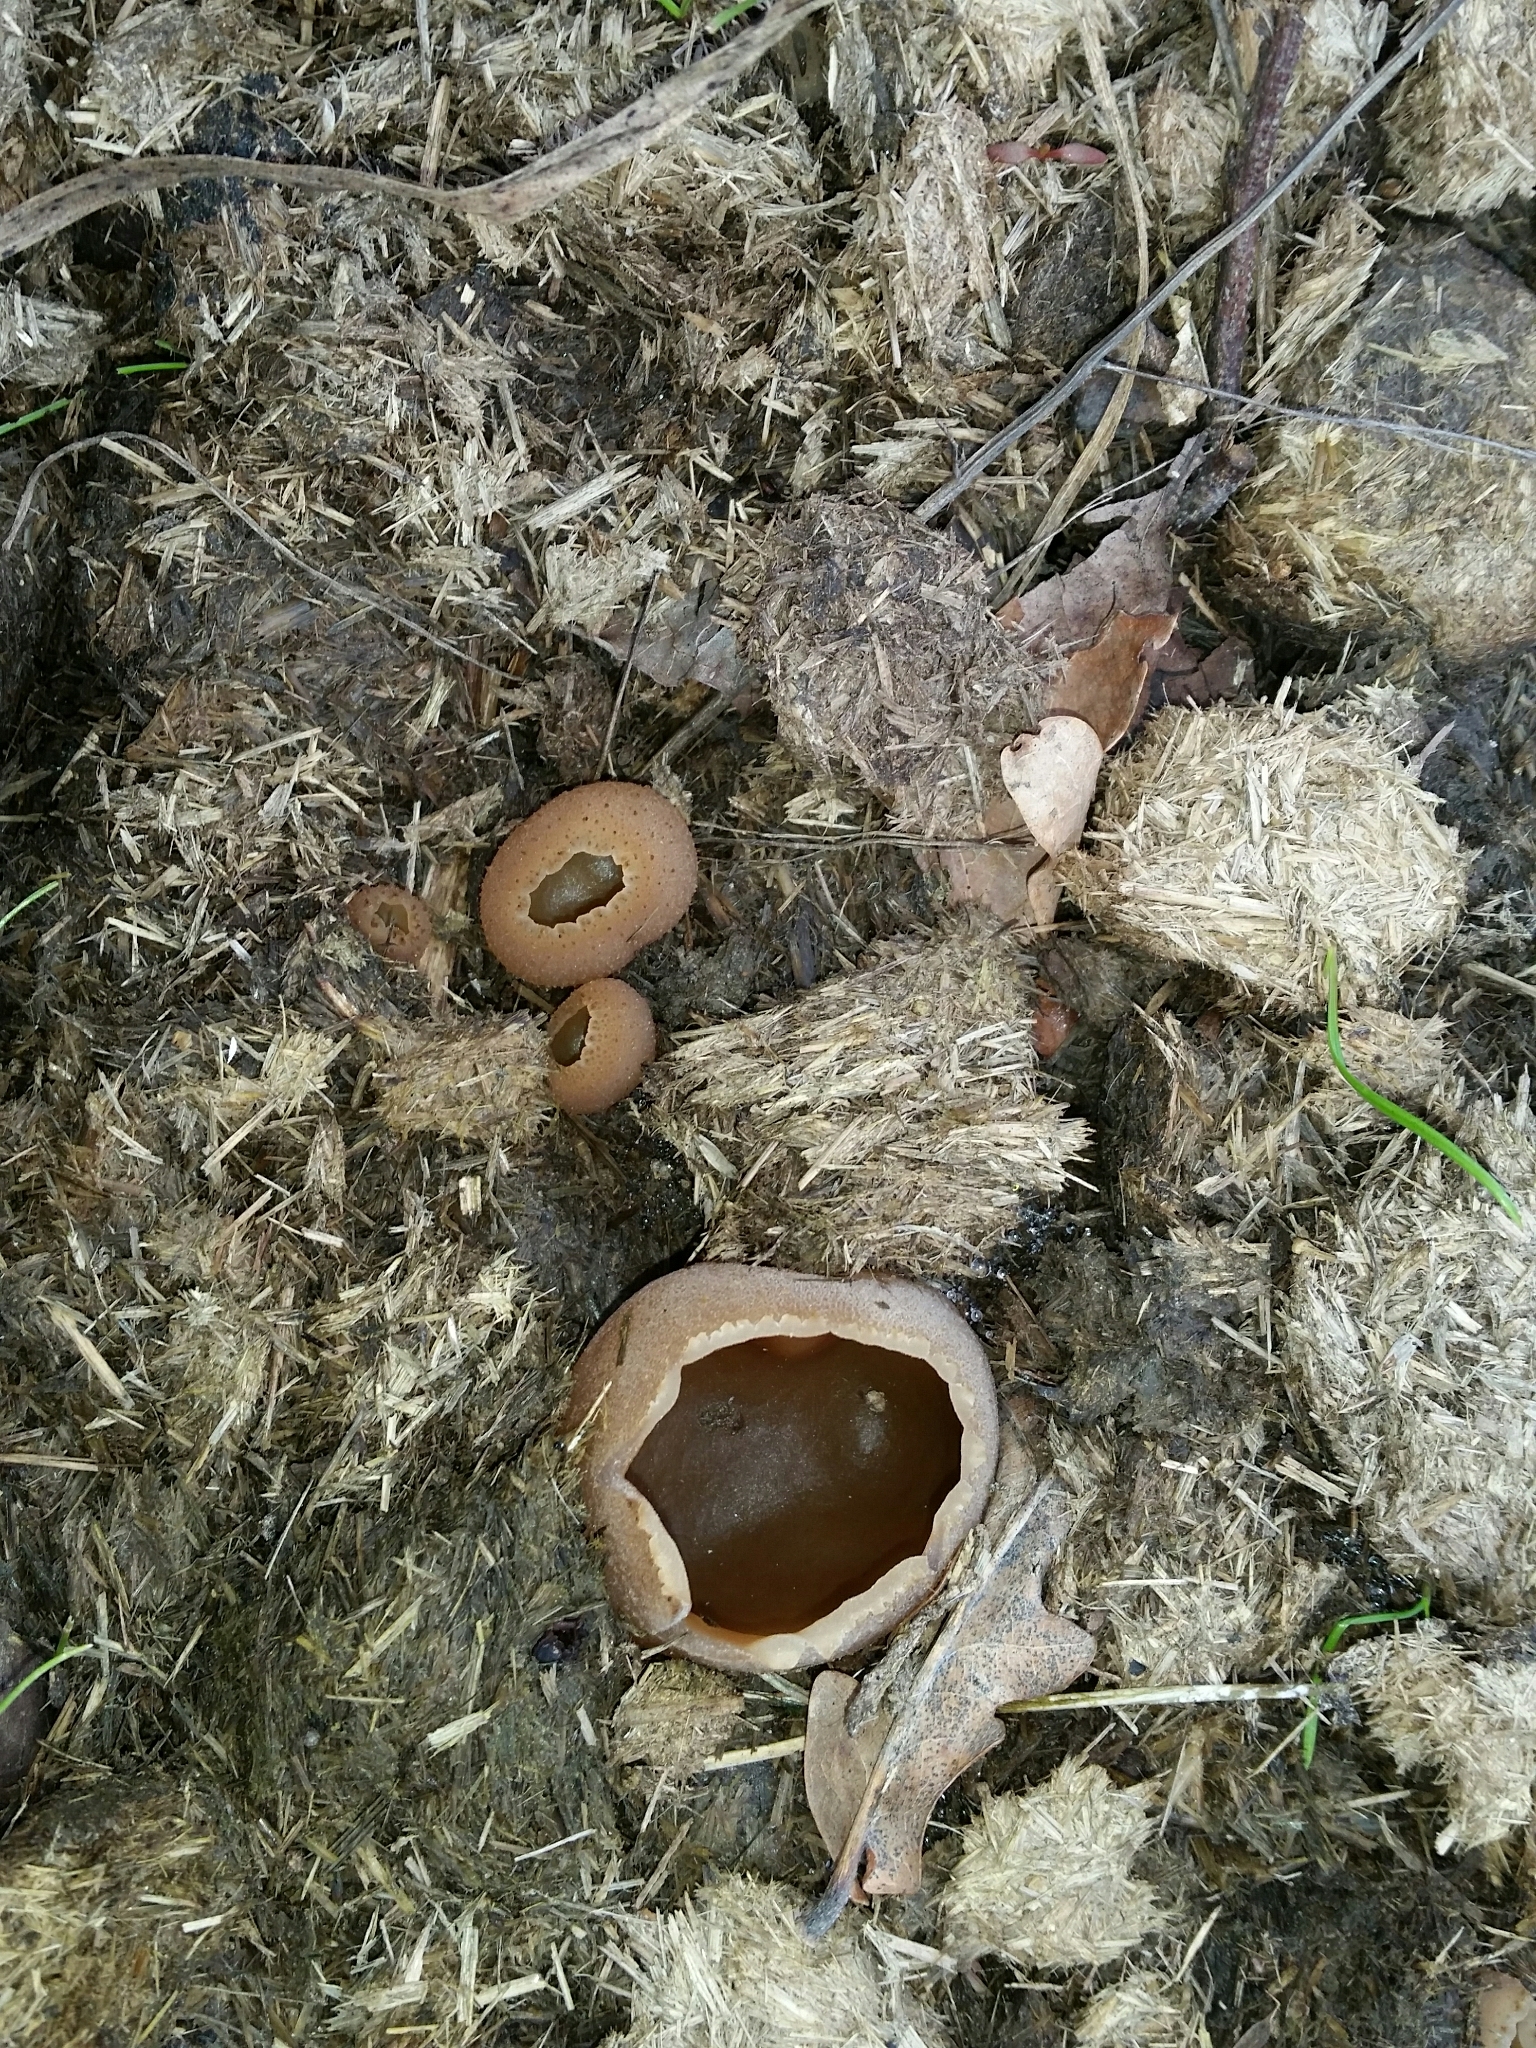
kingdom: Fungi
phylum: Ascomycota
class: Pezizomycetes
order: Pezizales
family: Pezizaceae
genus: Peziza
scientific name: Peziza vesiculosa
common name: Blistered cup
